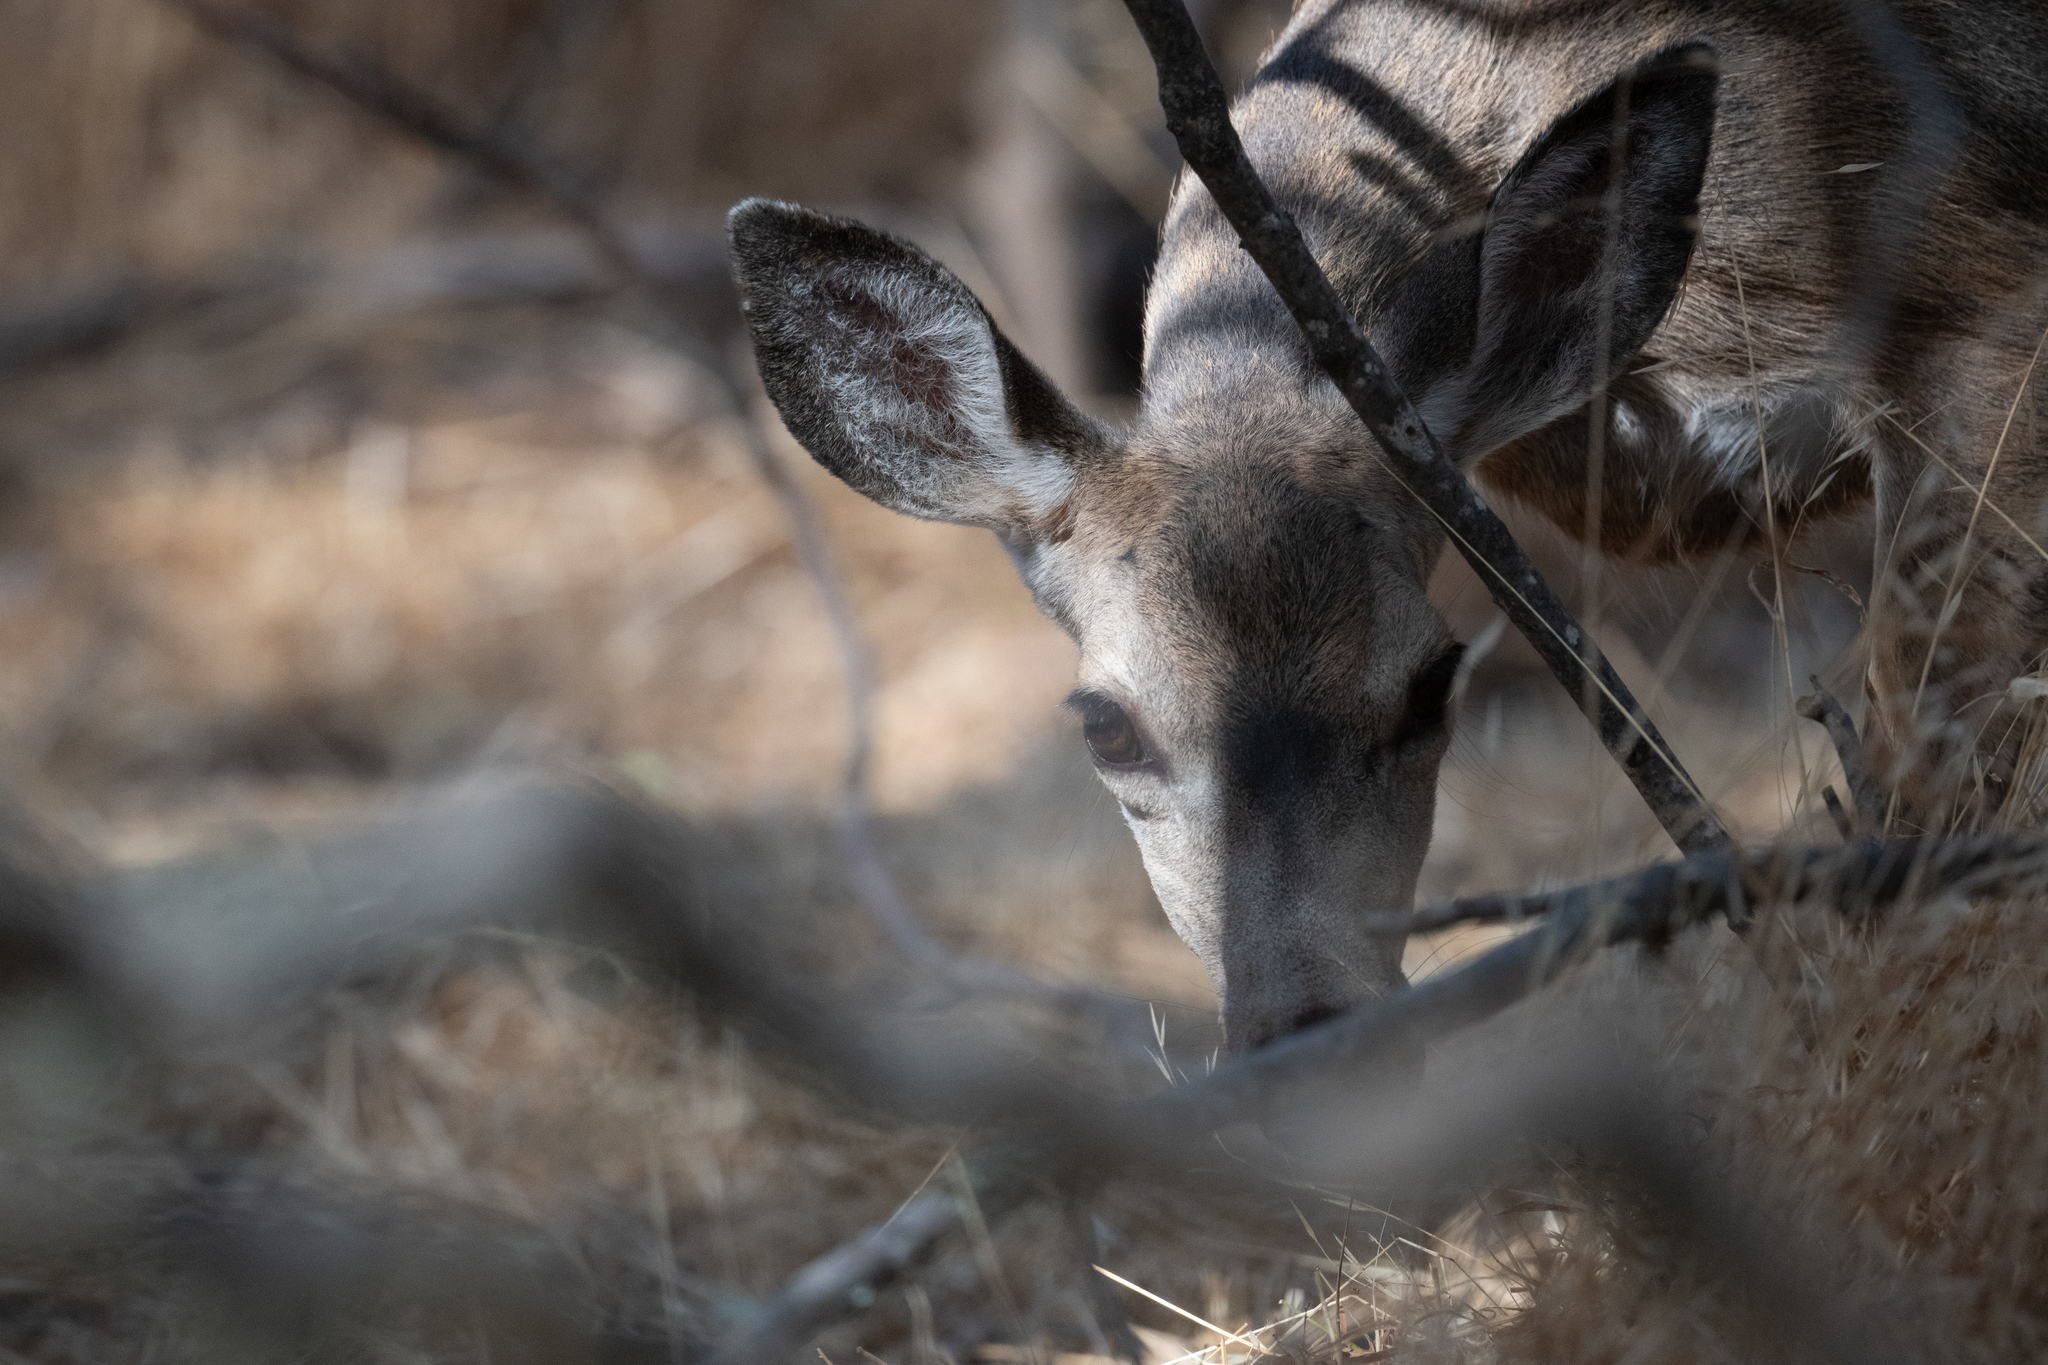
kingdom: Animalia
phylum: Chordata
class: Mammalia
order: Artiodactyla
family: Cervidae
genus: Odocoileus
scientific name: Odocoileus hemionus
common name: Mule deer
